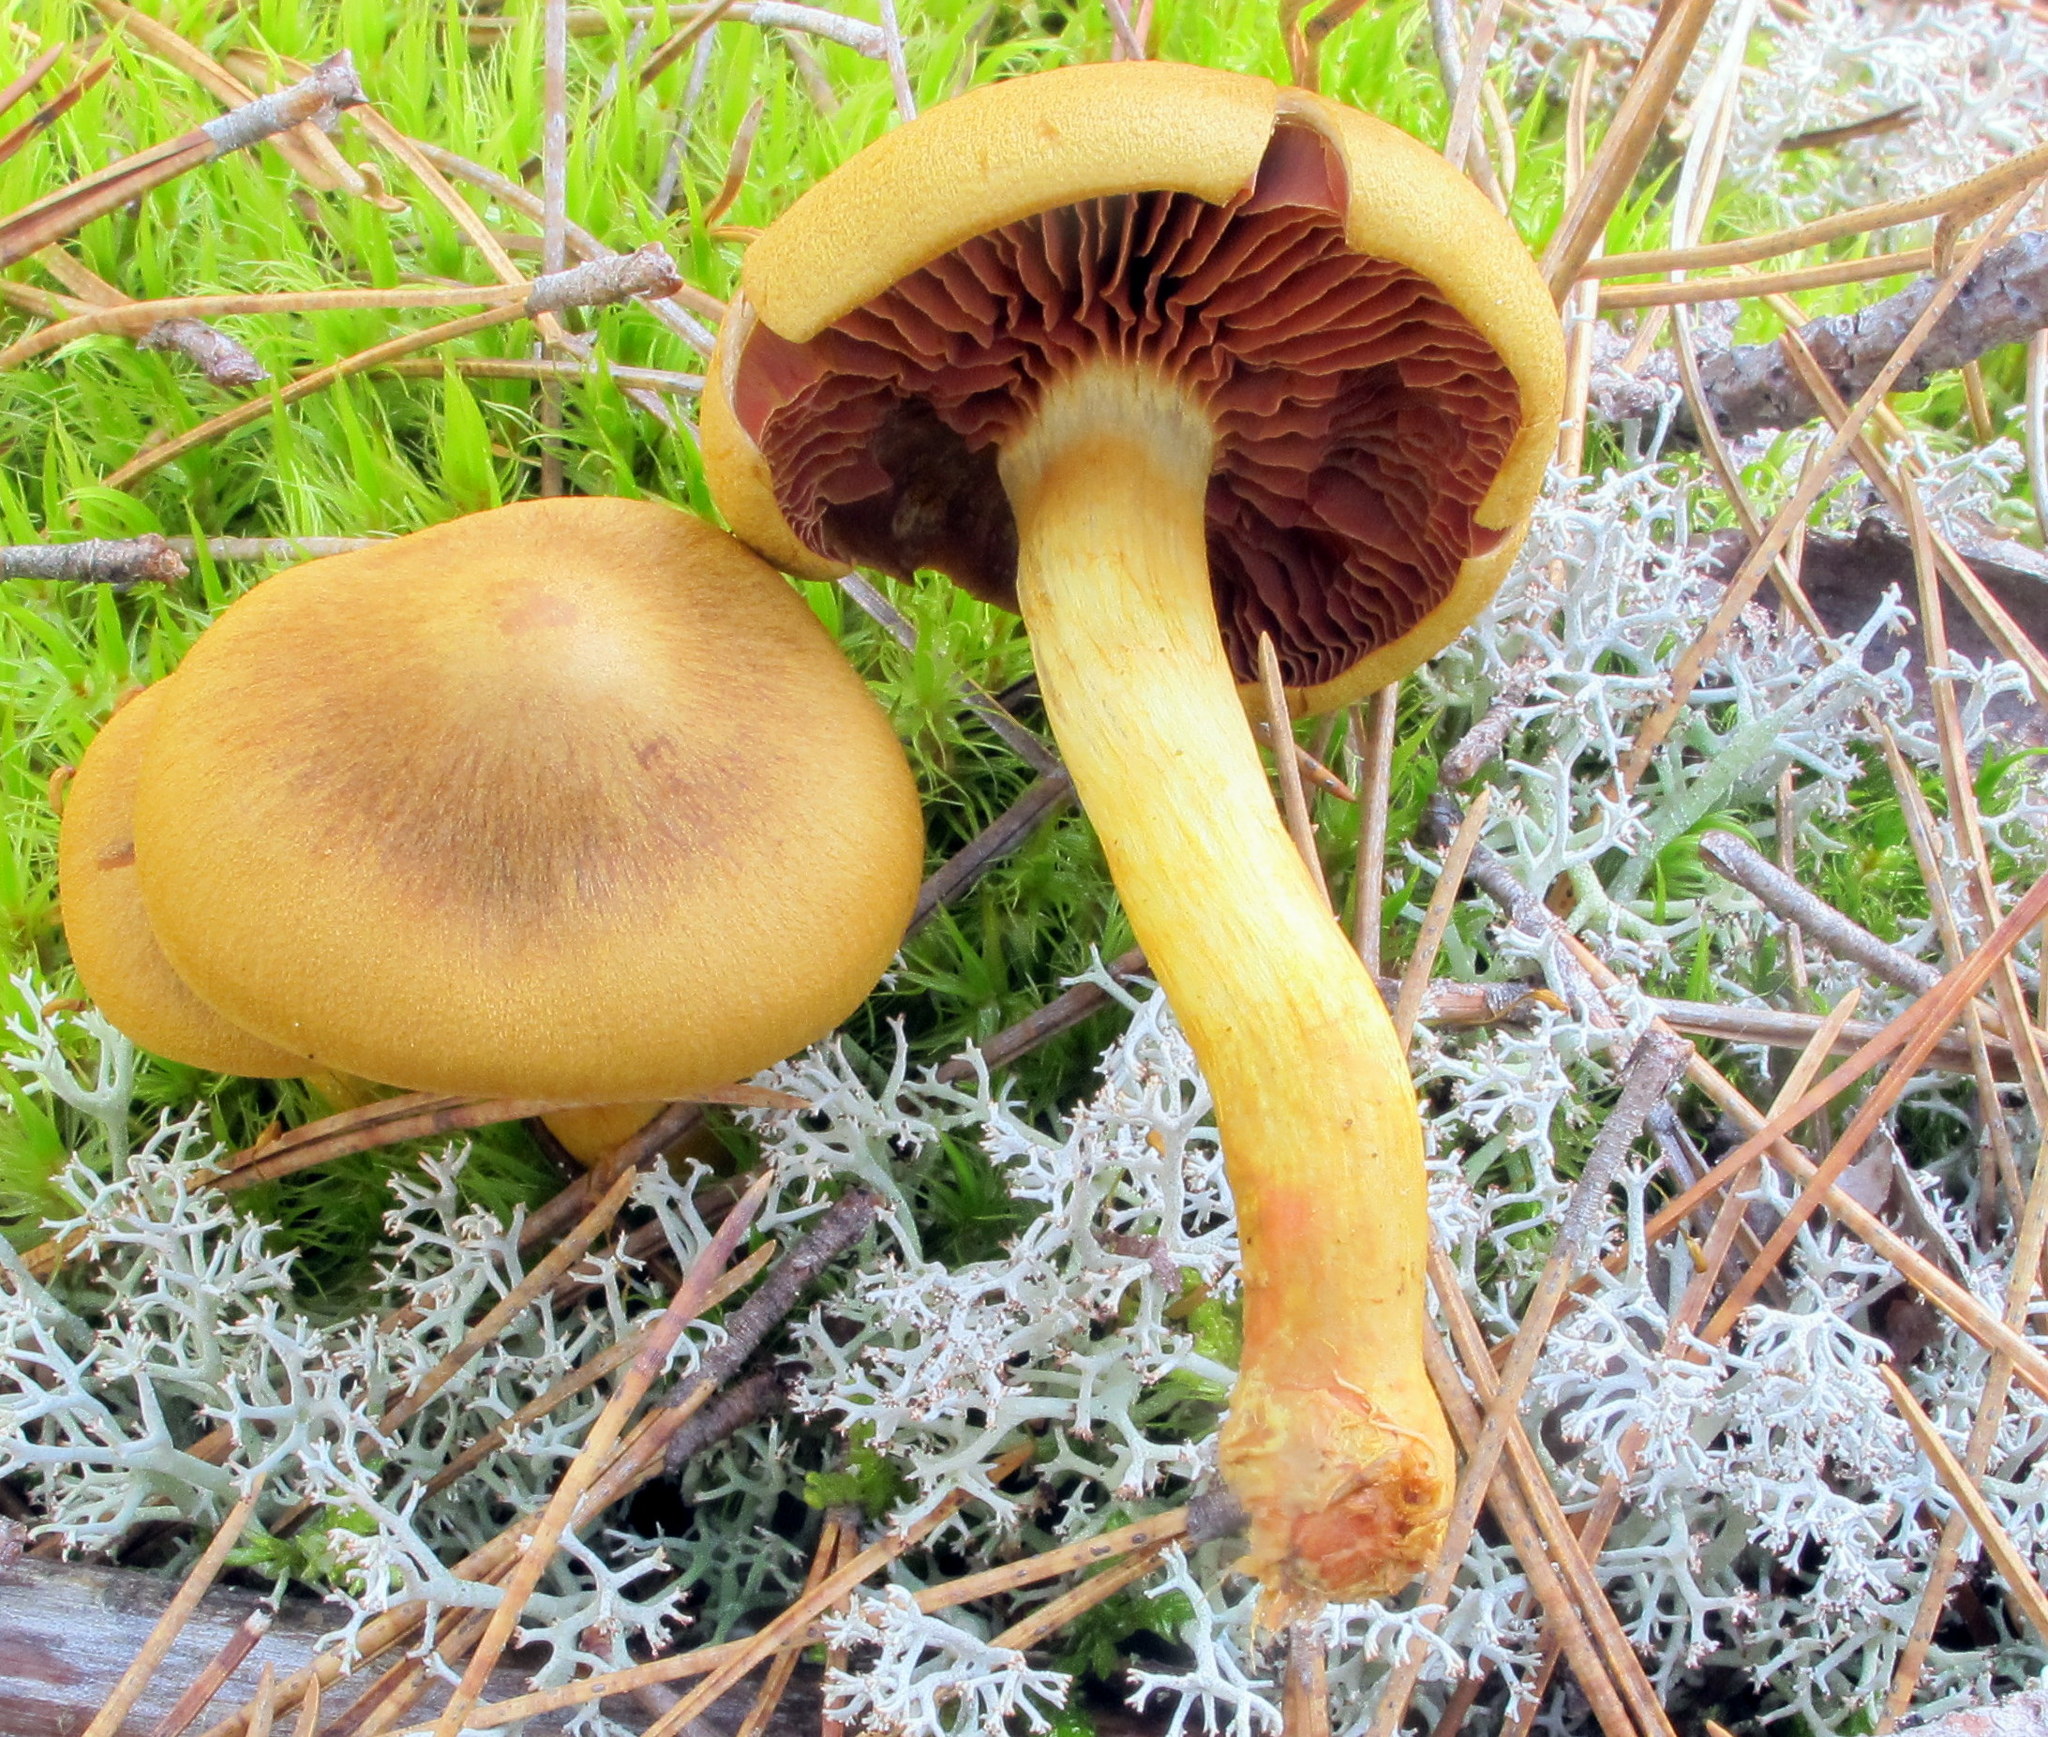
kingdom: Fungi
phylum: Basidiomycota
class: Agaricomycetes
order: Agaricales
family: Cortinariaceae
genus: Cortinarius
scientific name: Cortinarius semisanguineus
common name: Surprise webcap
